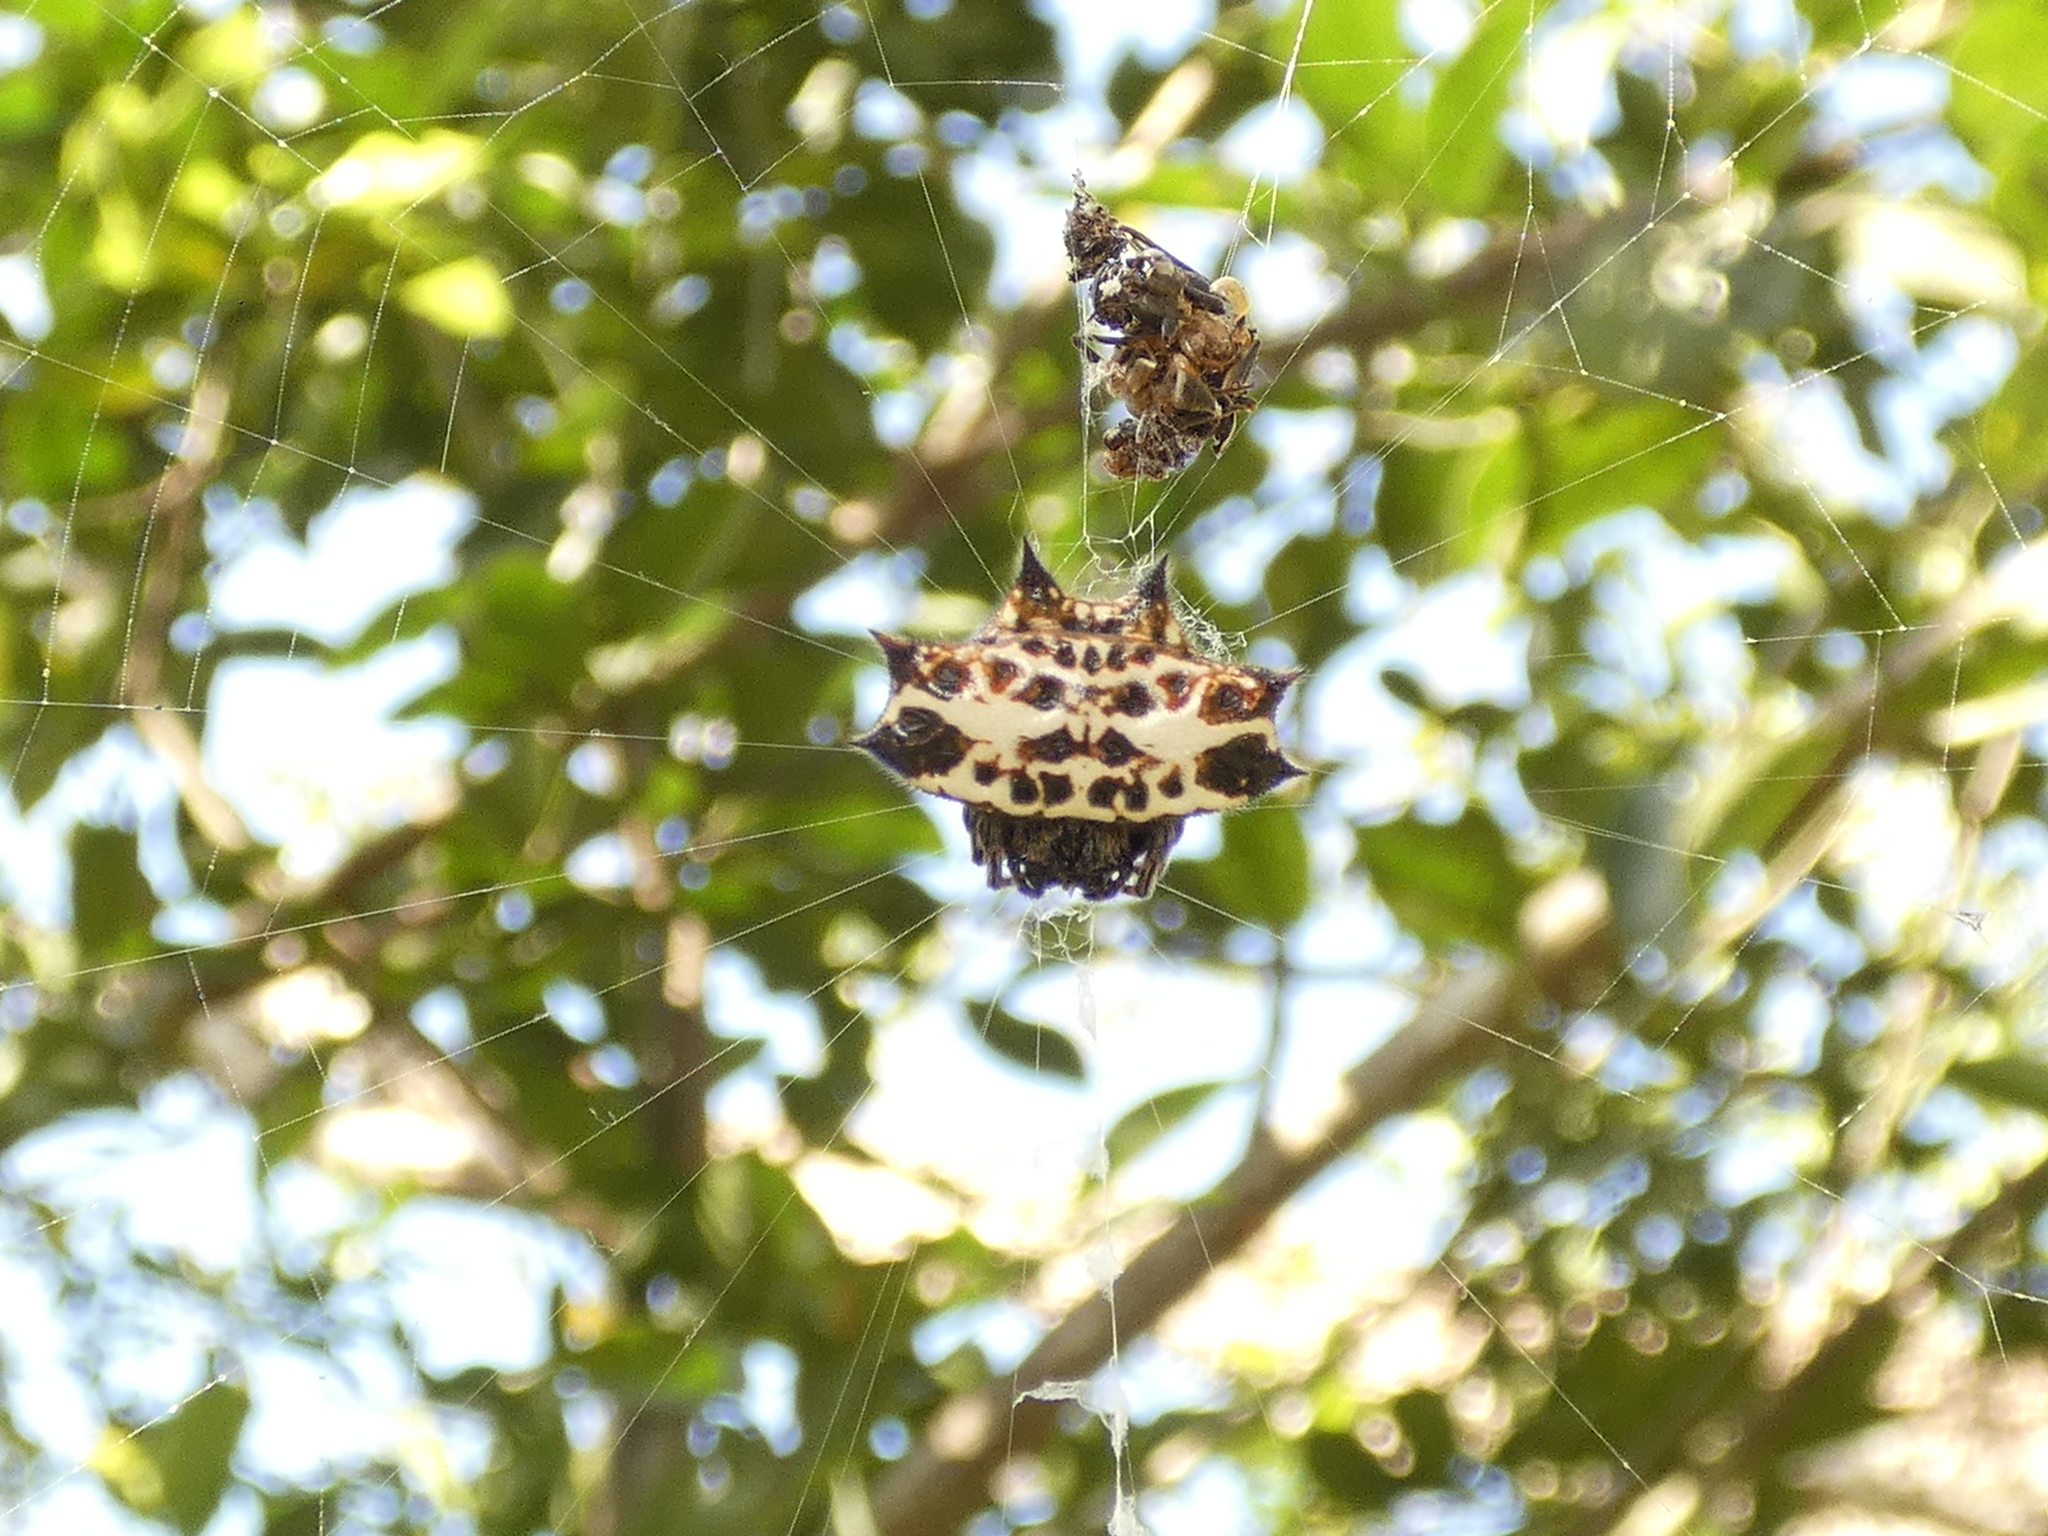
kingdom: Animalia
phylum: Arthropoda
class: Arachnida
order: Araneae
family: Araneidae
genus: Gasteracantha
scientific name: Gasteracantha cancriformis
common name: Orb weavers
